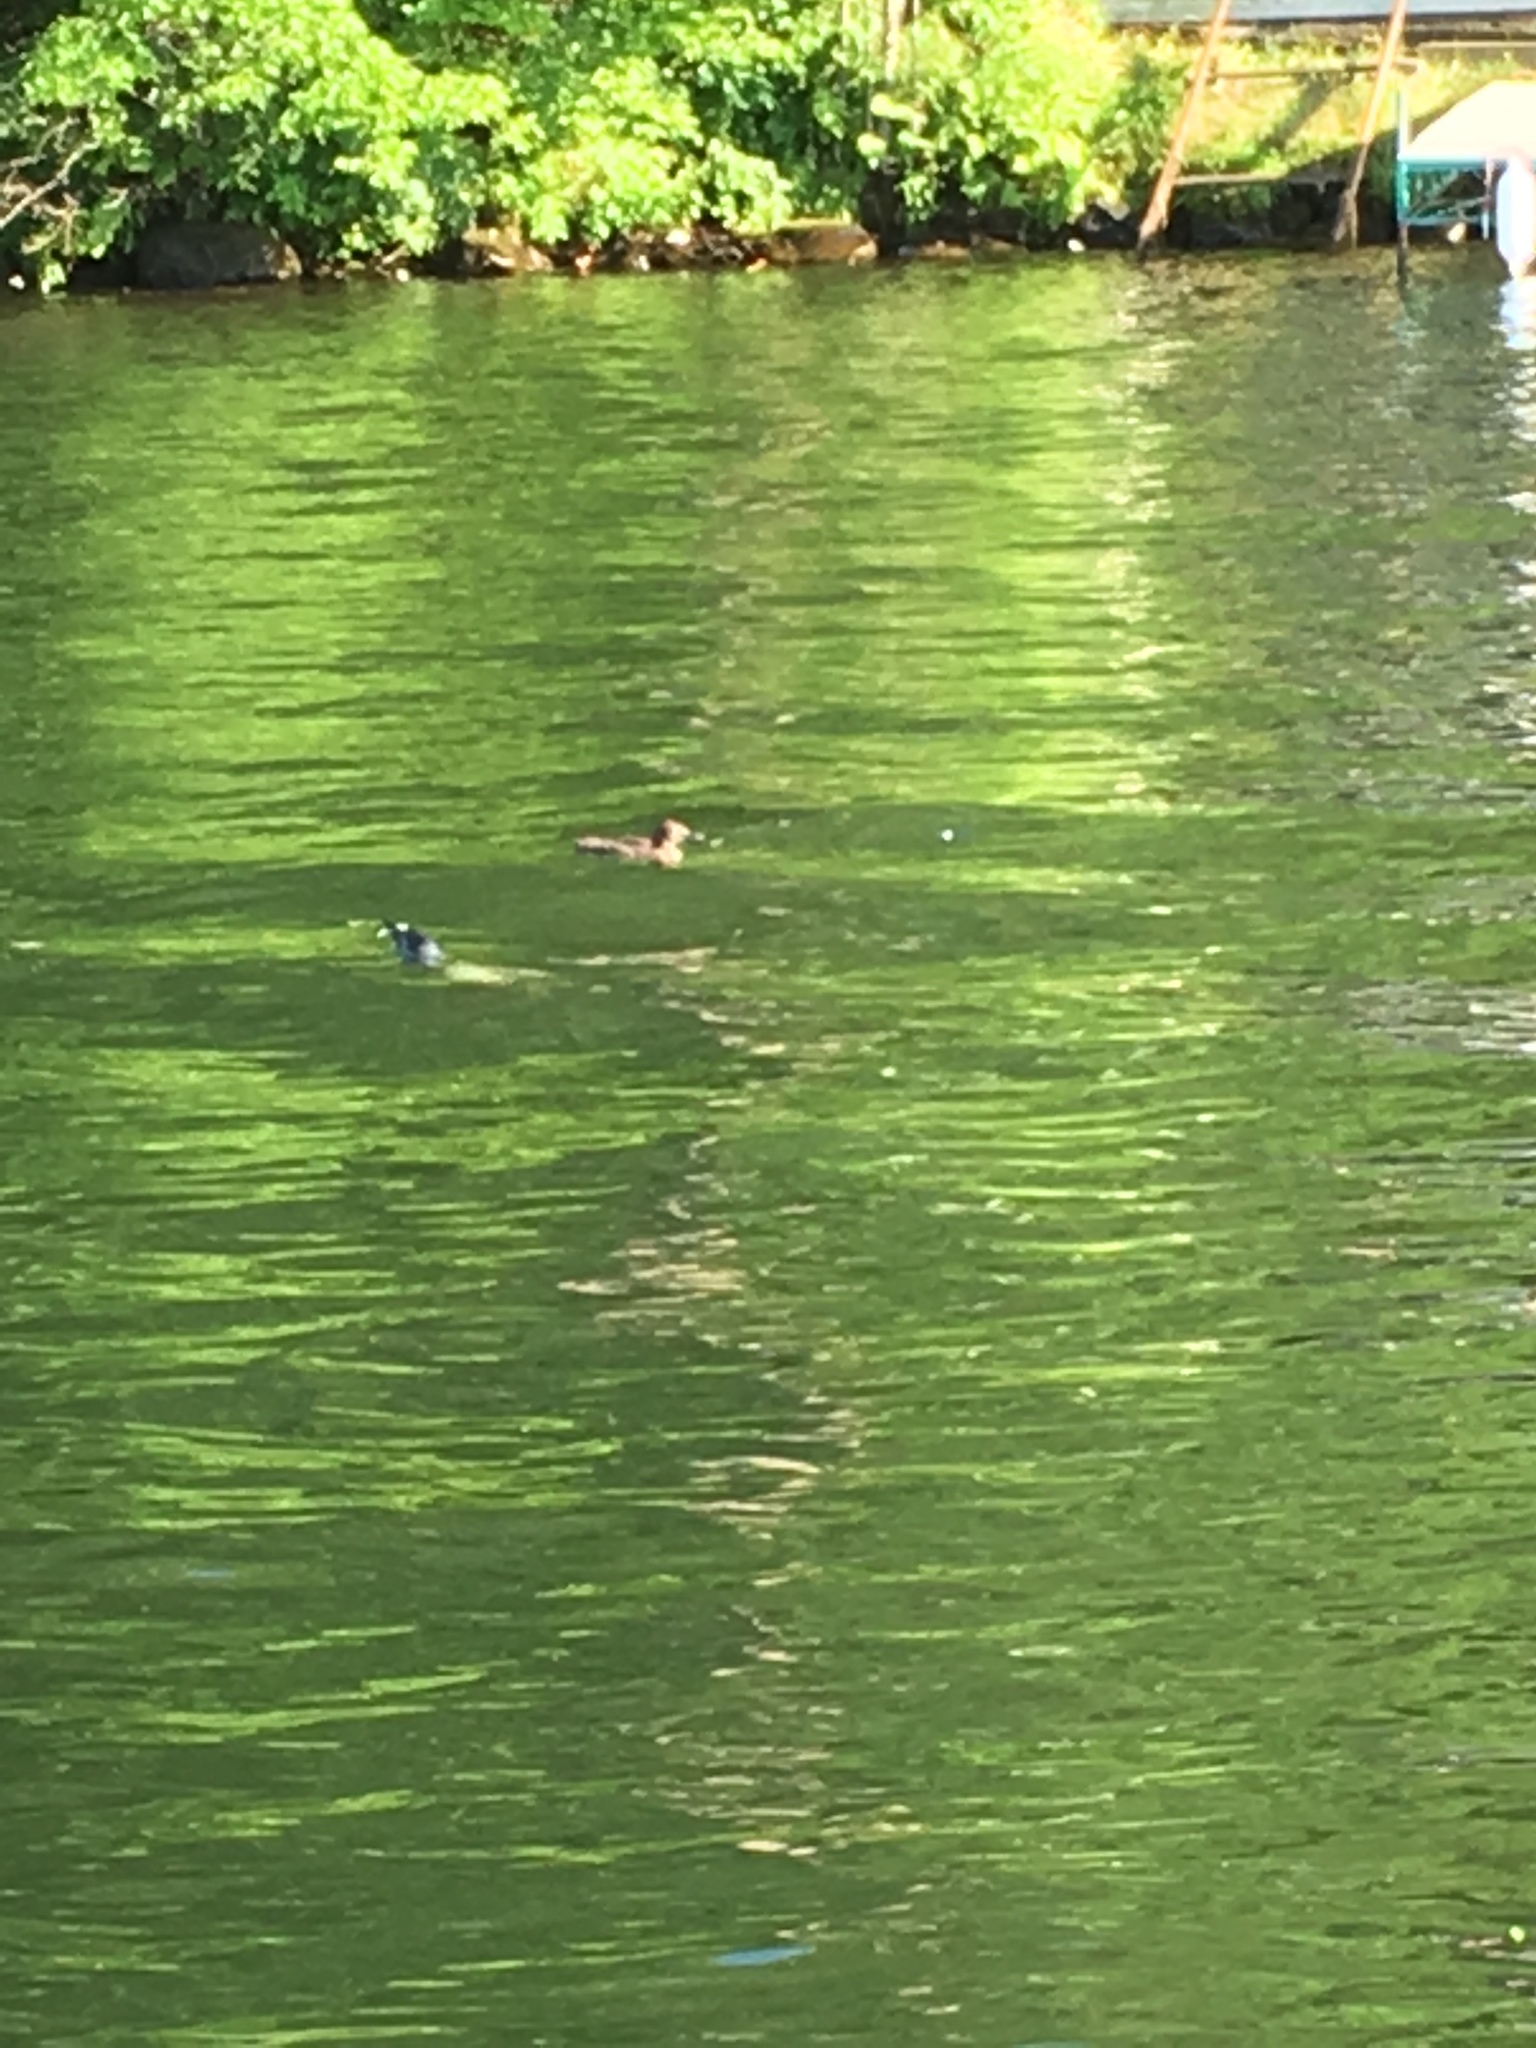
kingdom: Animalia
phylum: Chordata
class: Aves
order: Gaviiformes
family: Gaviidae
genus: Gavia
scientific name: Gavia immer
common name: Common loon
